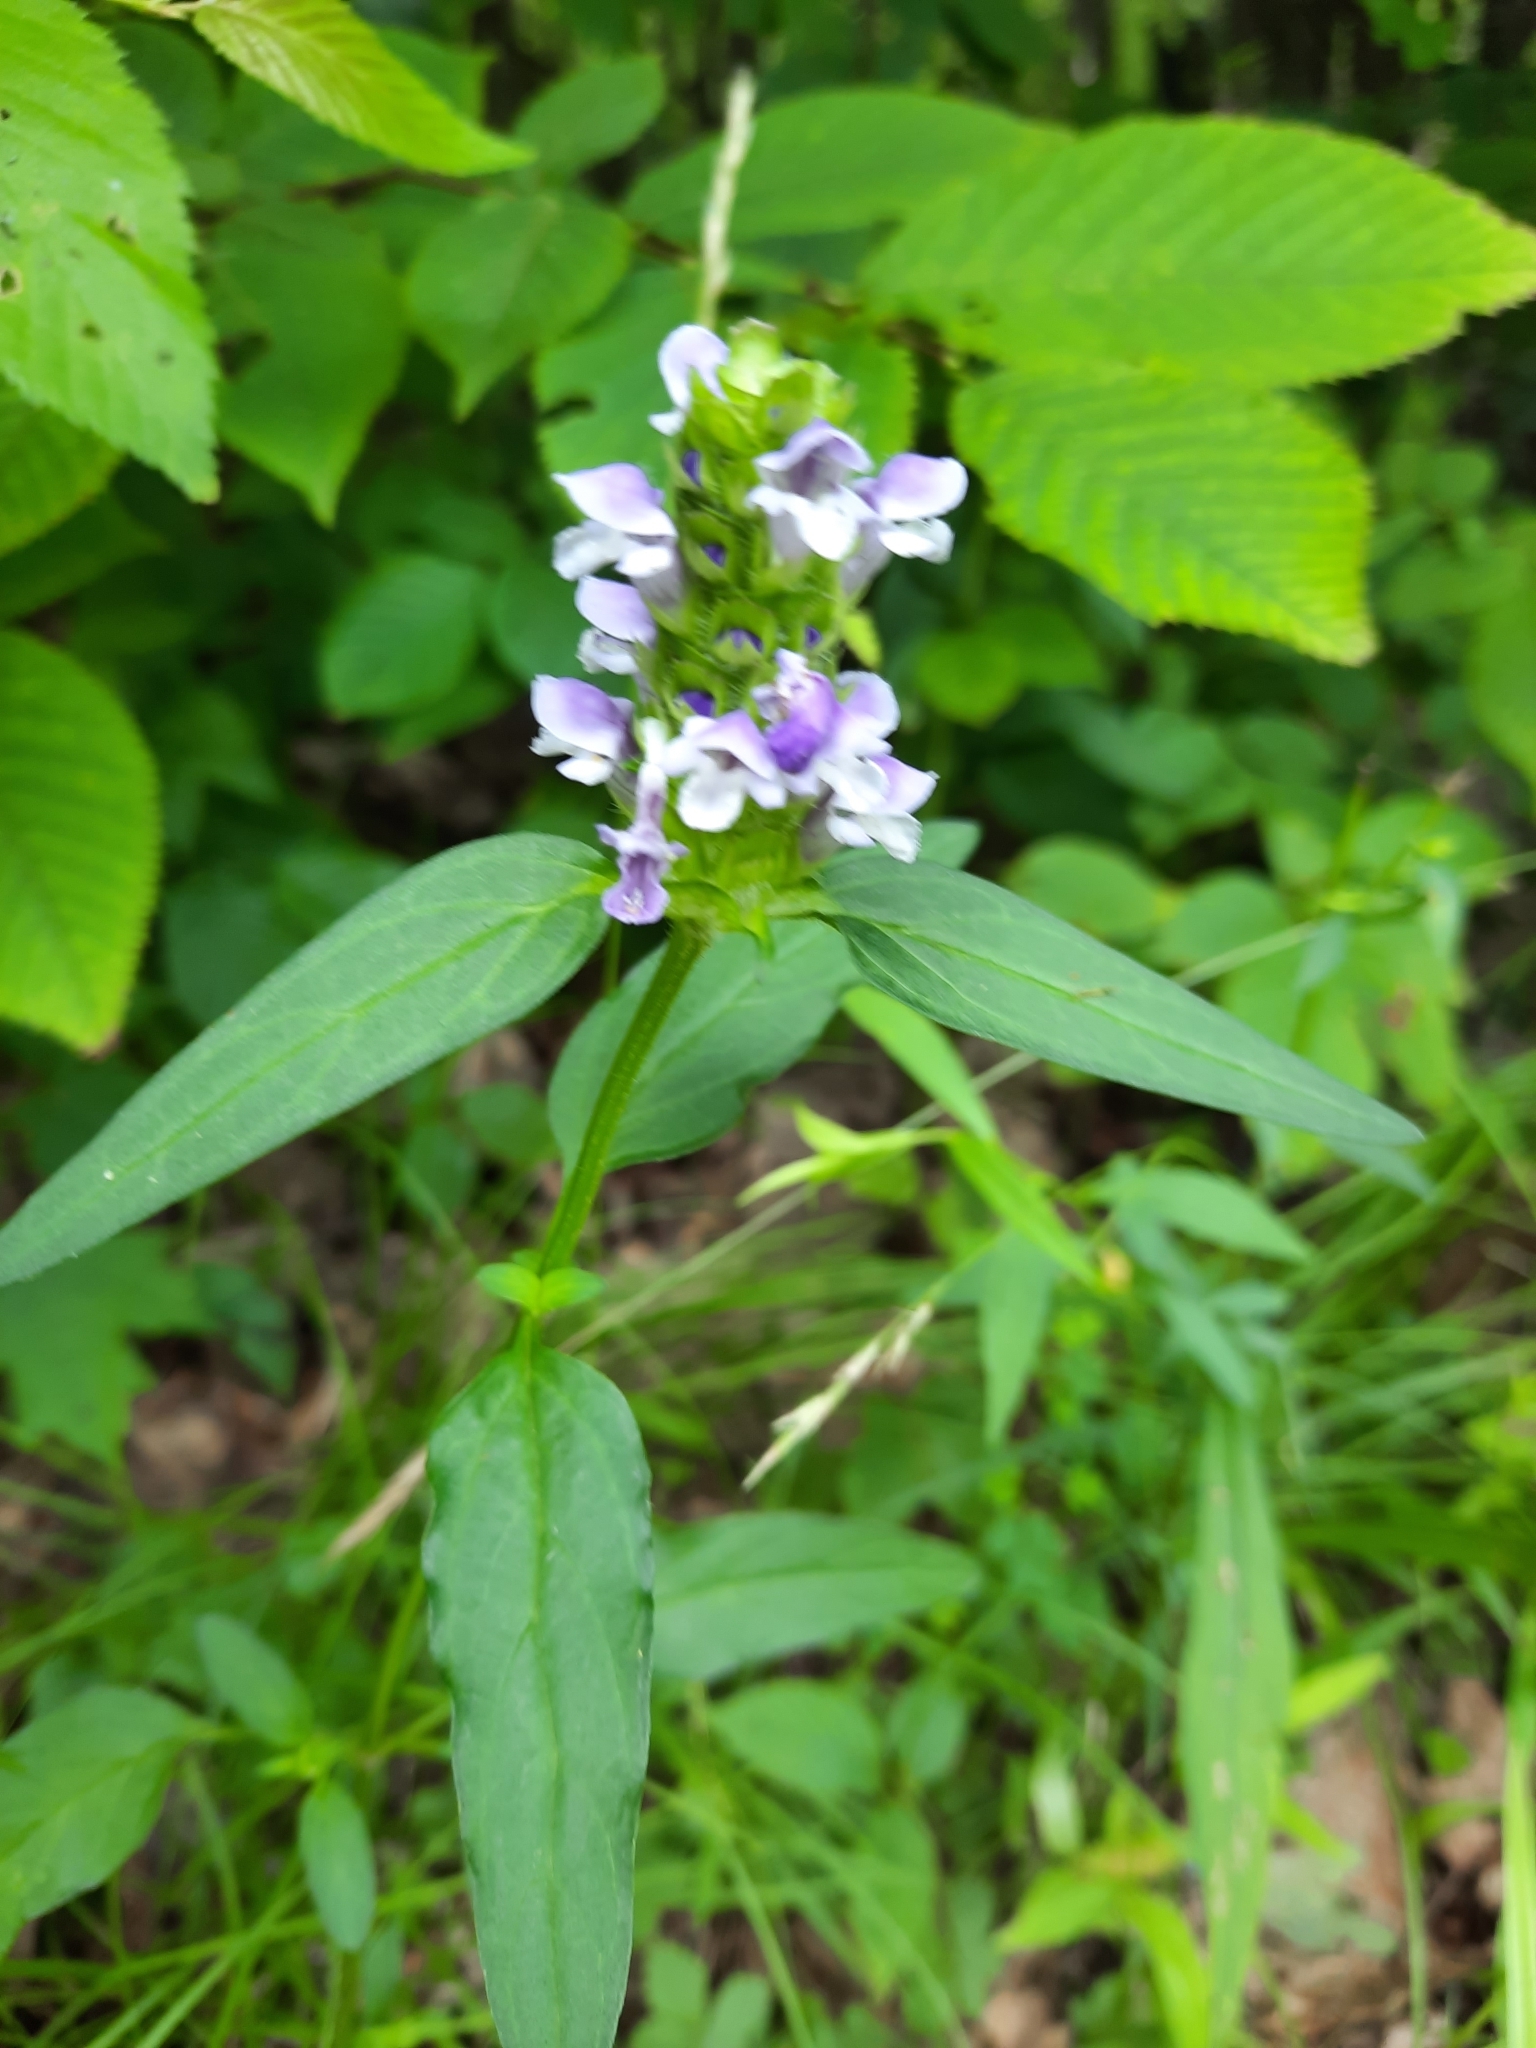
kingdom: Plantae
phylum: Tracheophyta
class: Magnoliopsida
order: Lamiales
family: Lamiaceae
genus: Prunella
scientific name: Prunella vulgaris
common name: Heal-all
